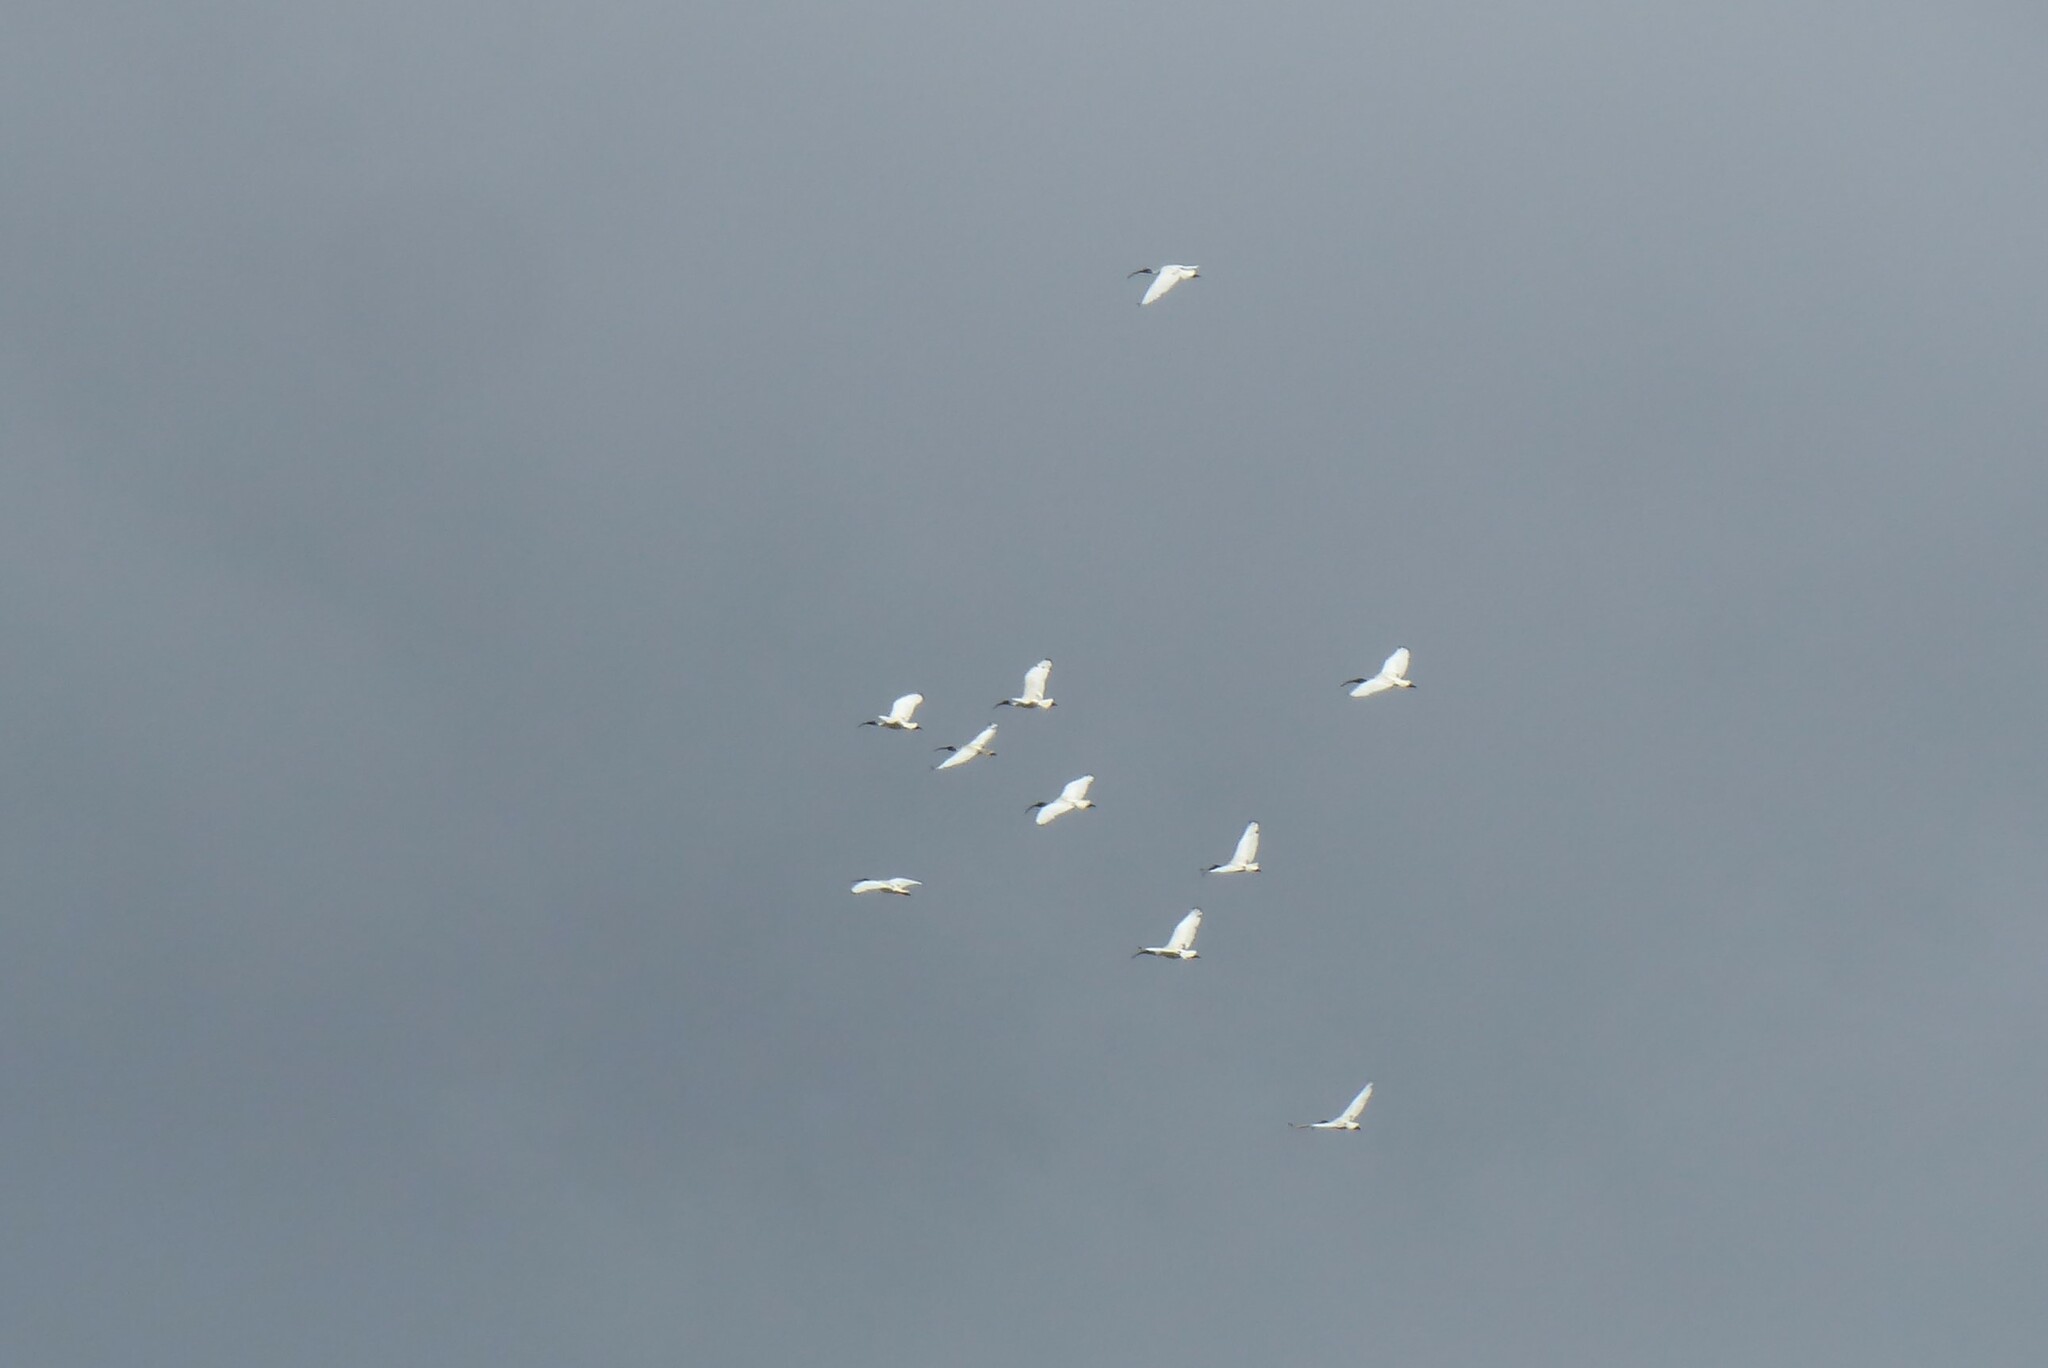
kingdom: Animalia
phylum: Chordata
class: Aves
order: Pelecaniformes
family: Threskiornithidae
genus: Threskiornis
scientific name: Threskiornis molucca
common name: Australian white ibis
